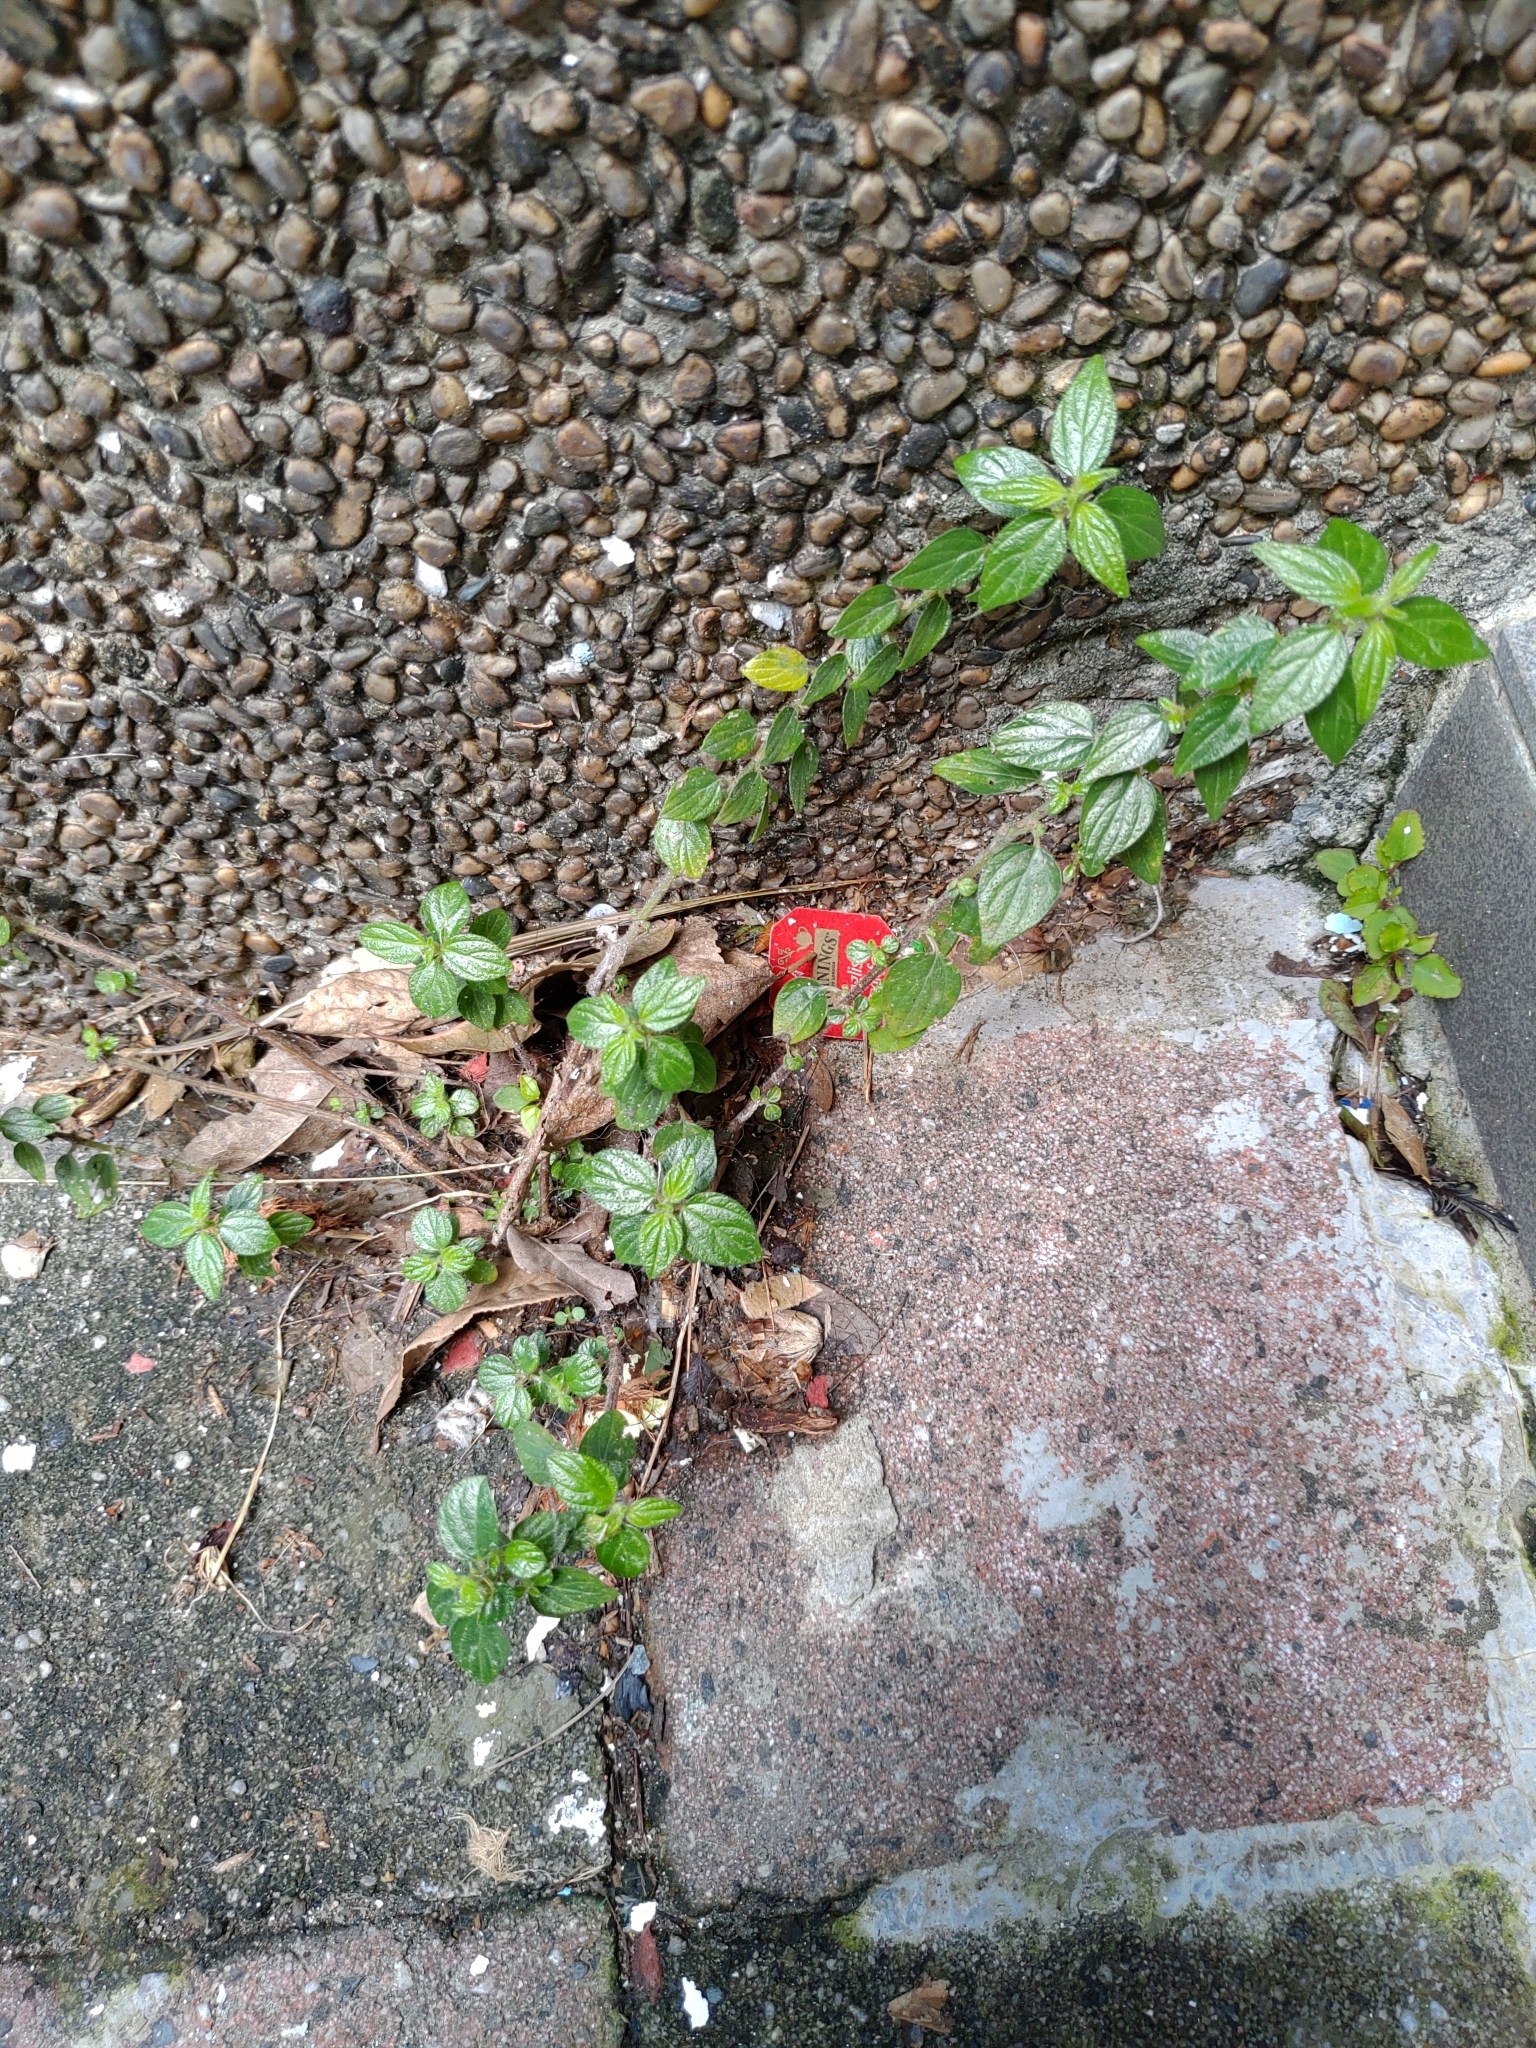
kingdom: Plantae
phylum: Tracheophyta
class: Magnoliopsida
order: Rosales
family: Urticaceae
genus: Pouzolzia
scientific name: Pouzolzia zeylanica
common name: Graceful pouzolzsbush
